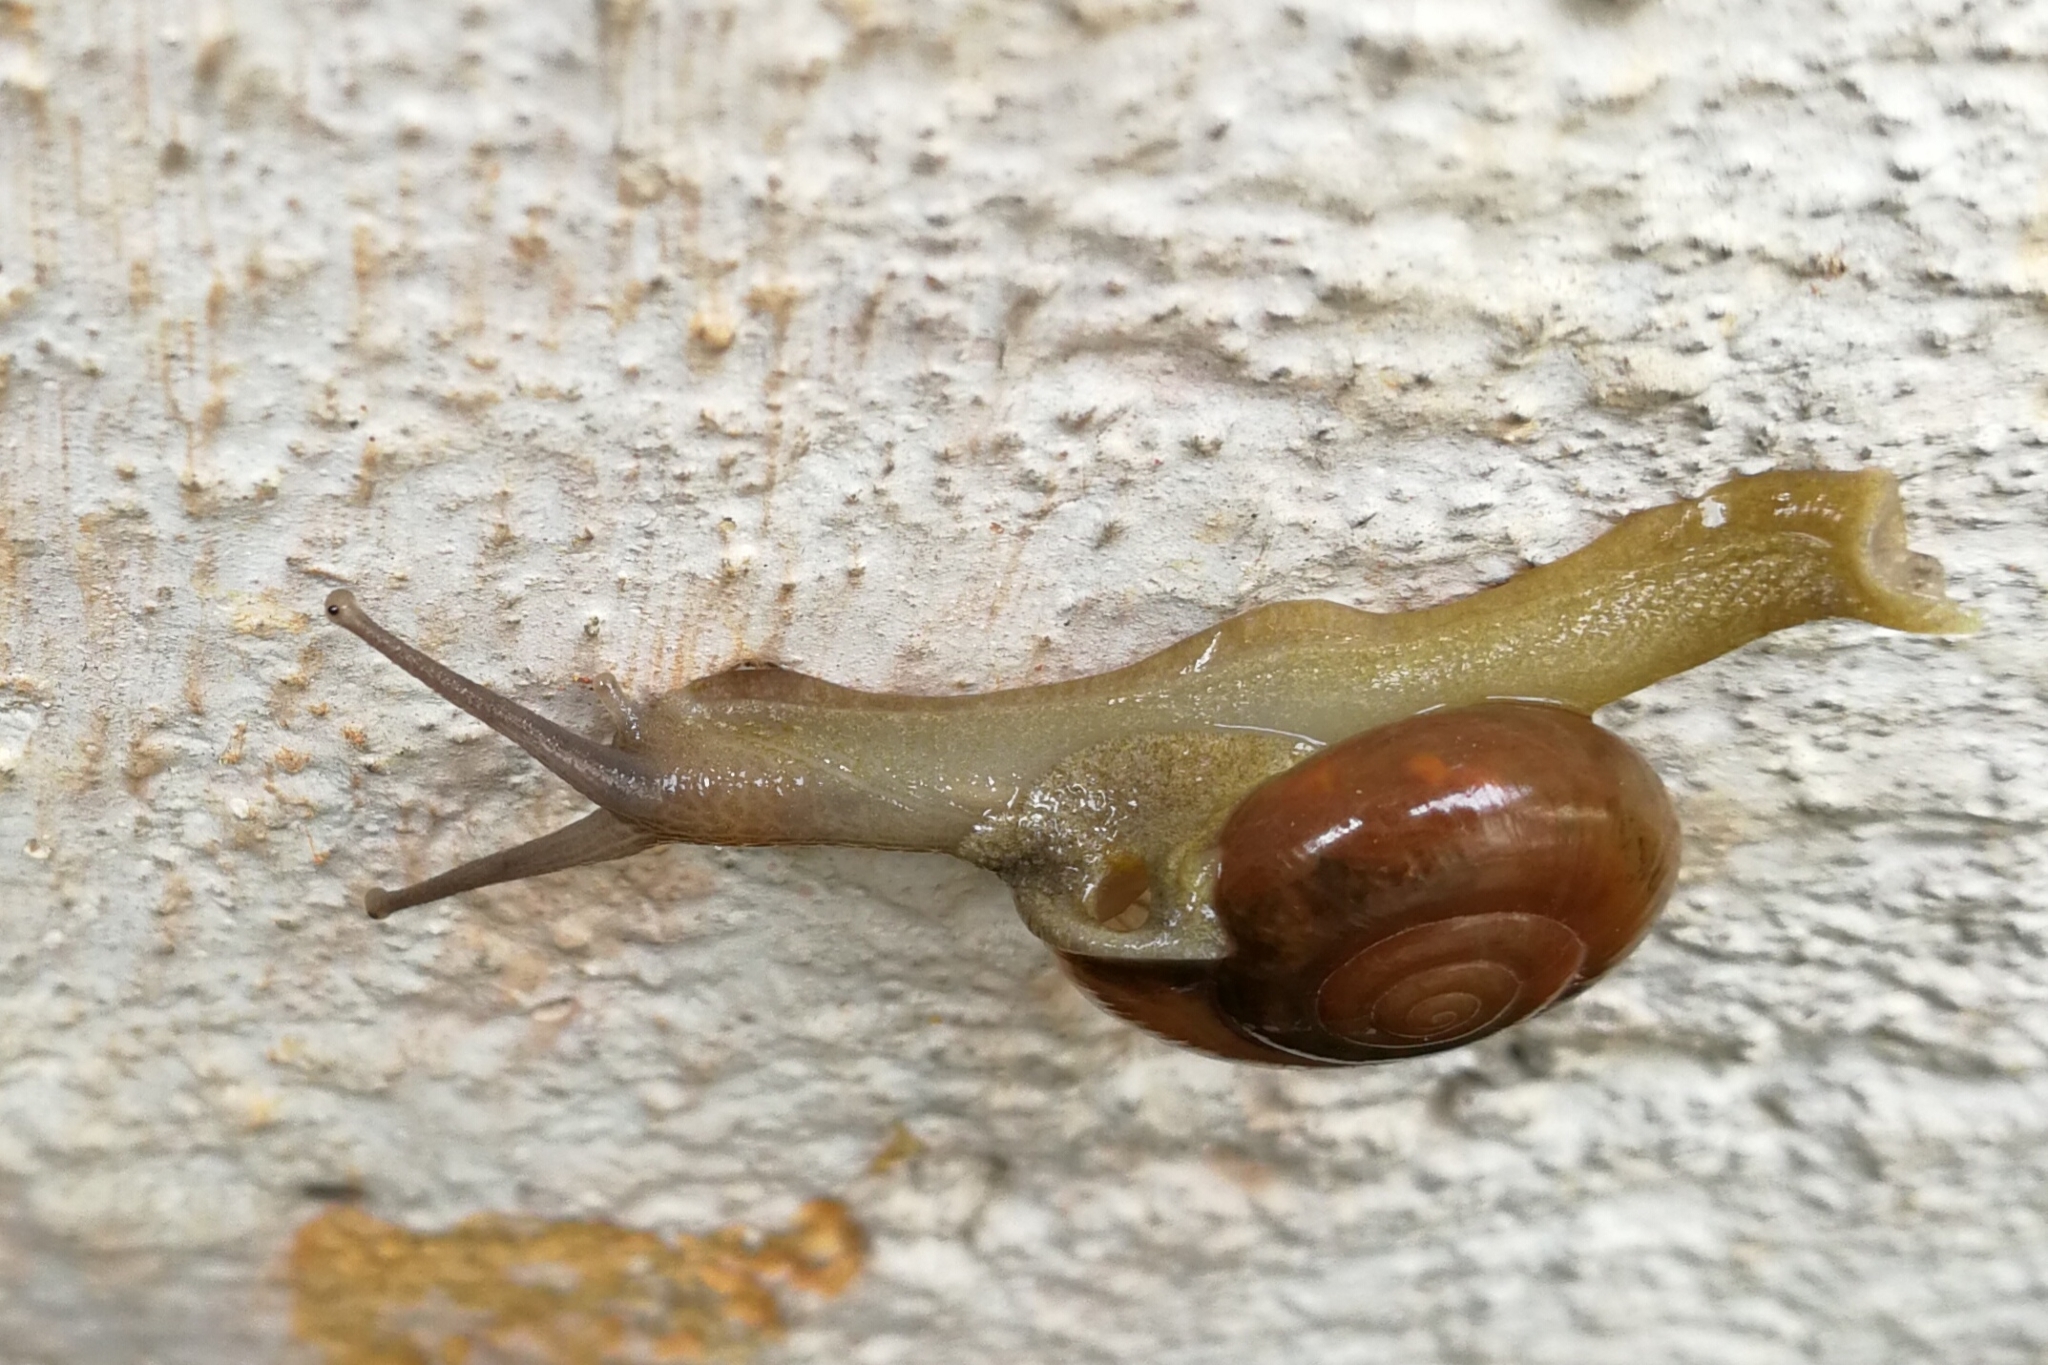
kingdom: Animalia
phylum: Mollusca
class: Gastropoda
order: Stylommatophora
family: Ariophantidae
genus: Macrochlamys
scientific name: Macrochlamys indica
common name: Horntail snail
